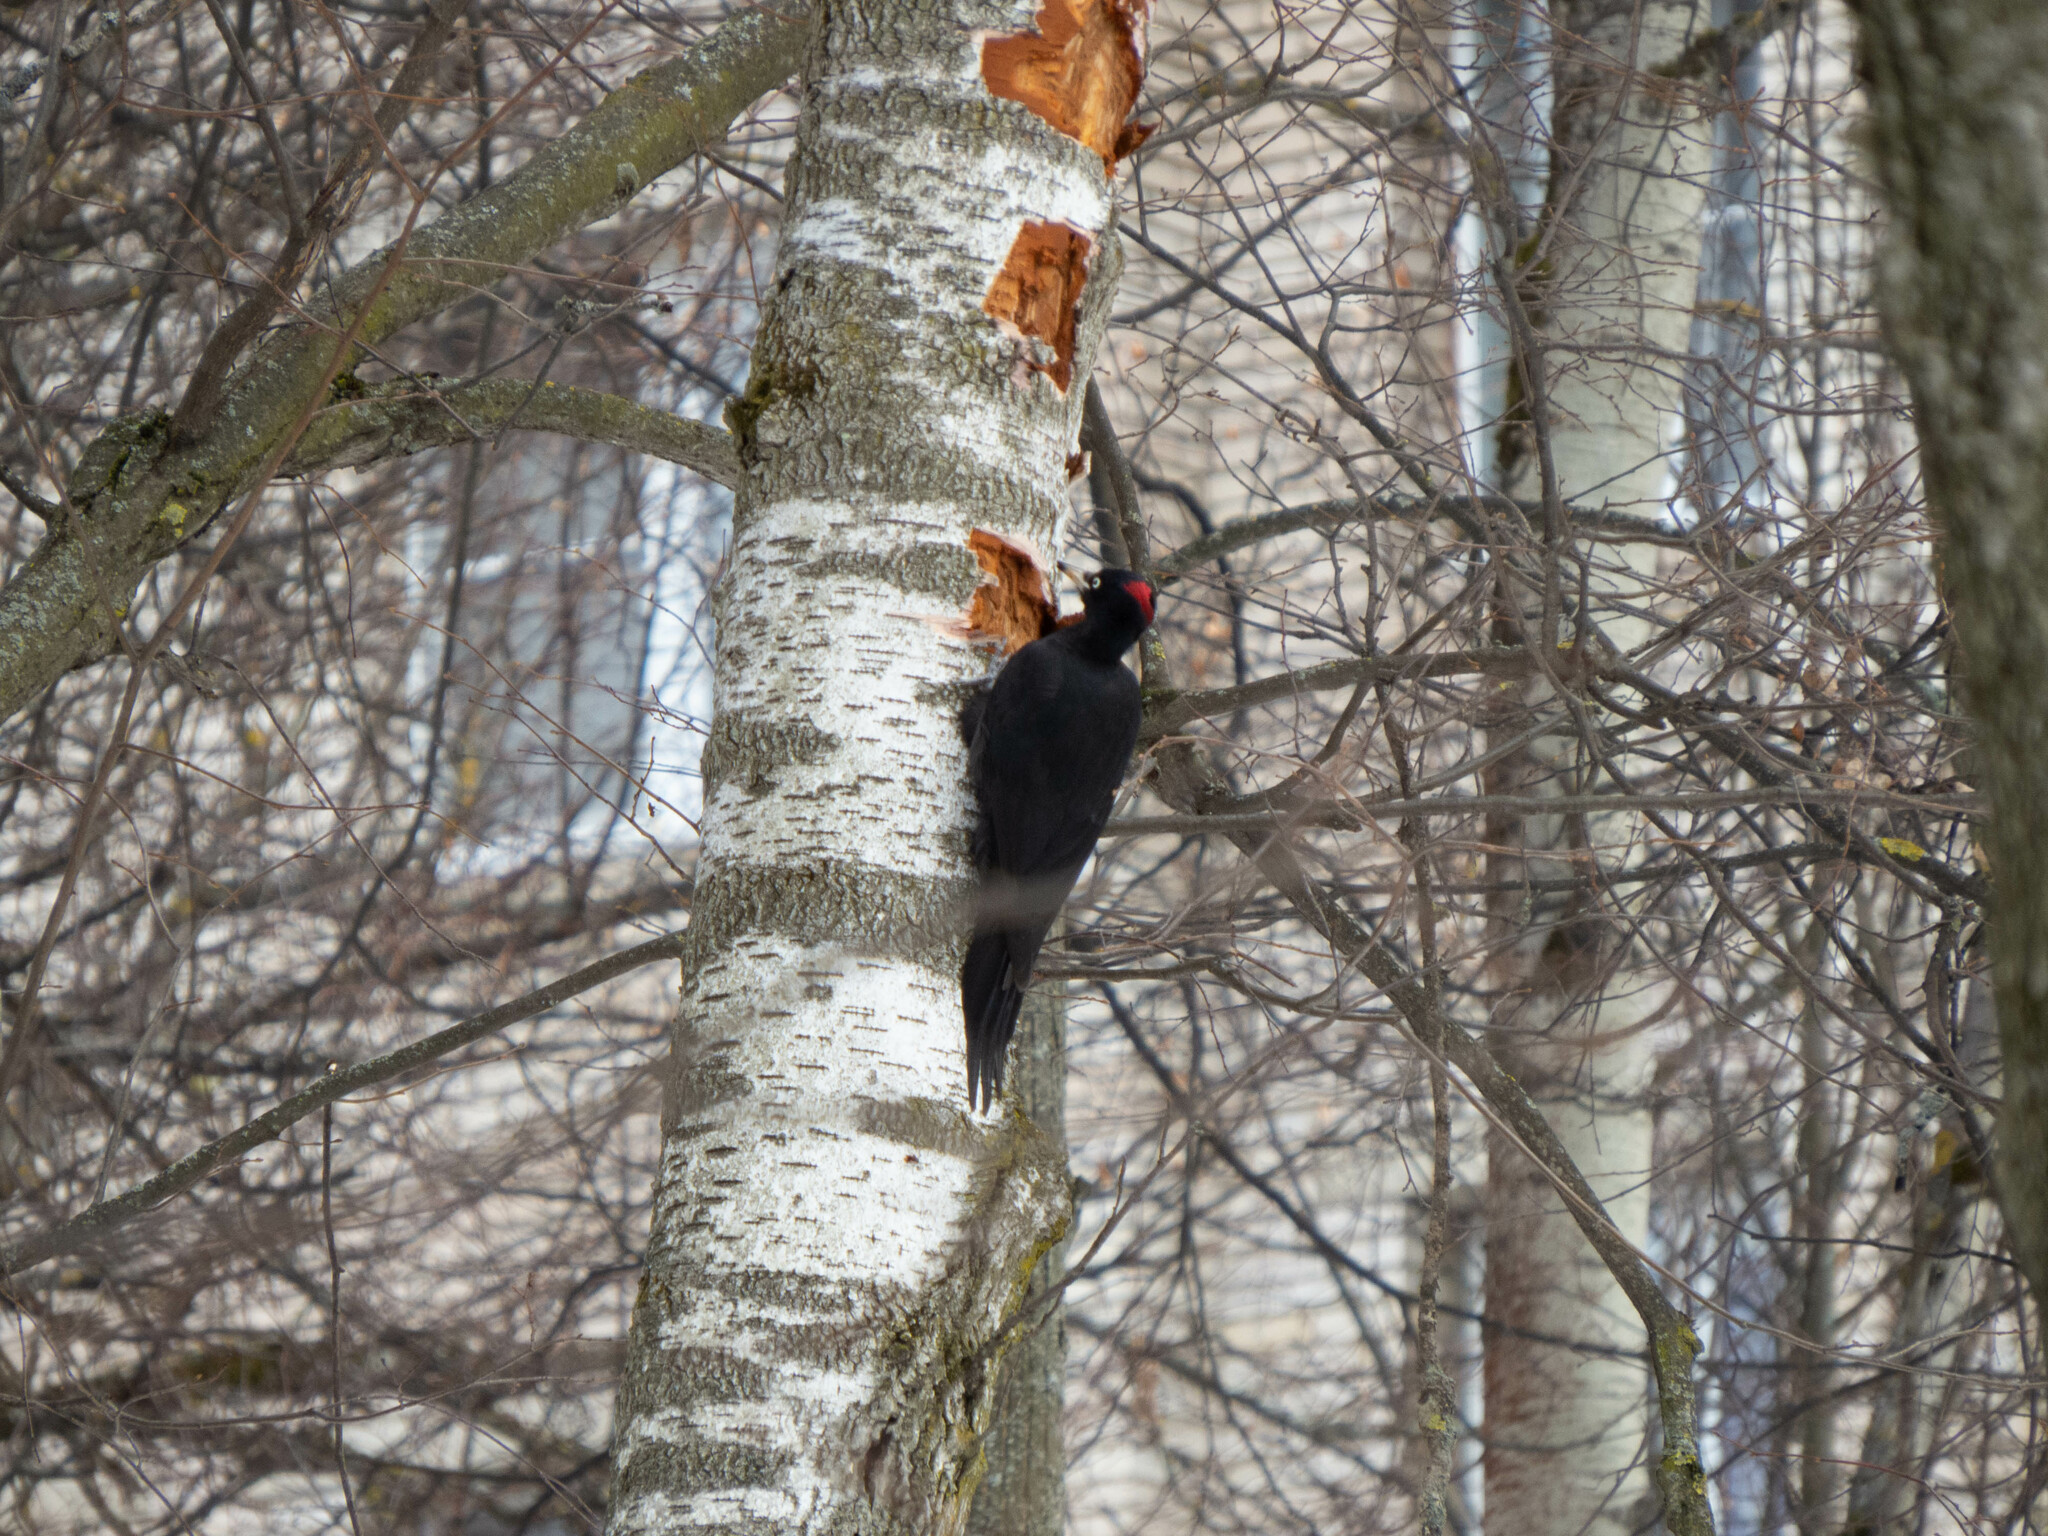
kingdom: Animalia
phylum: Chordata
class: Aves
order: Piciformes
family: Picidae
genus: Dryocopus
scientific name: Dryocopus martius
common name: Black woodpecker
